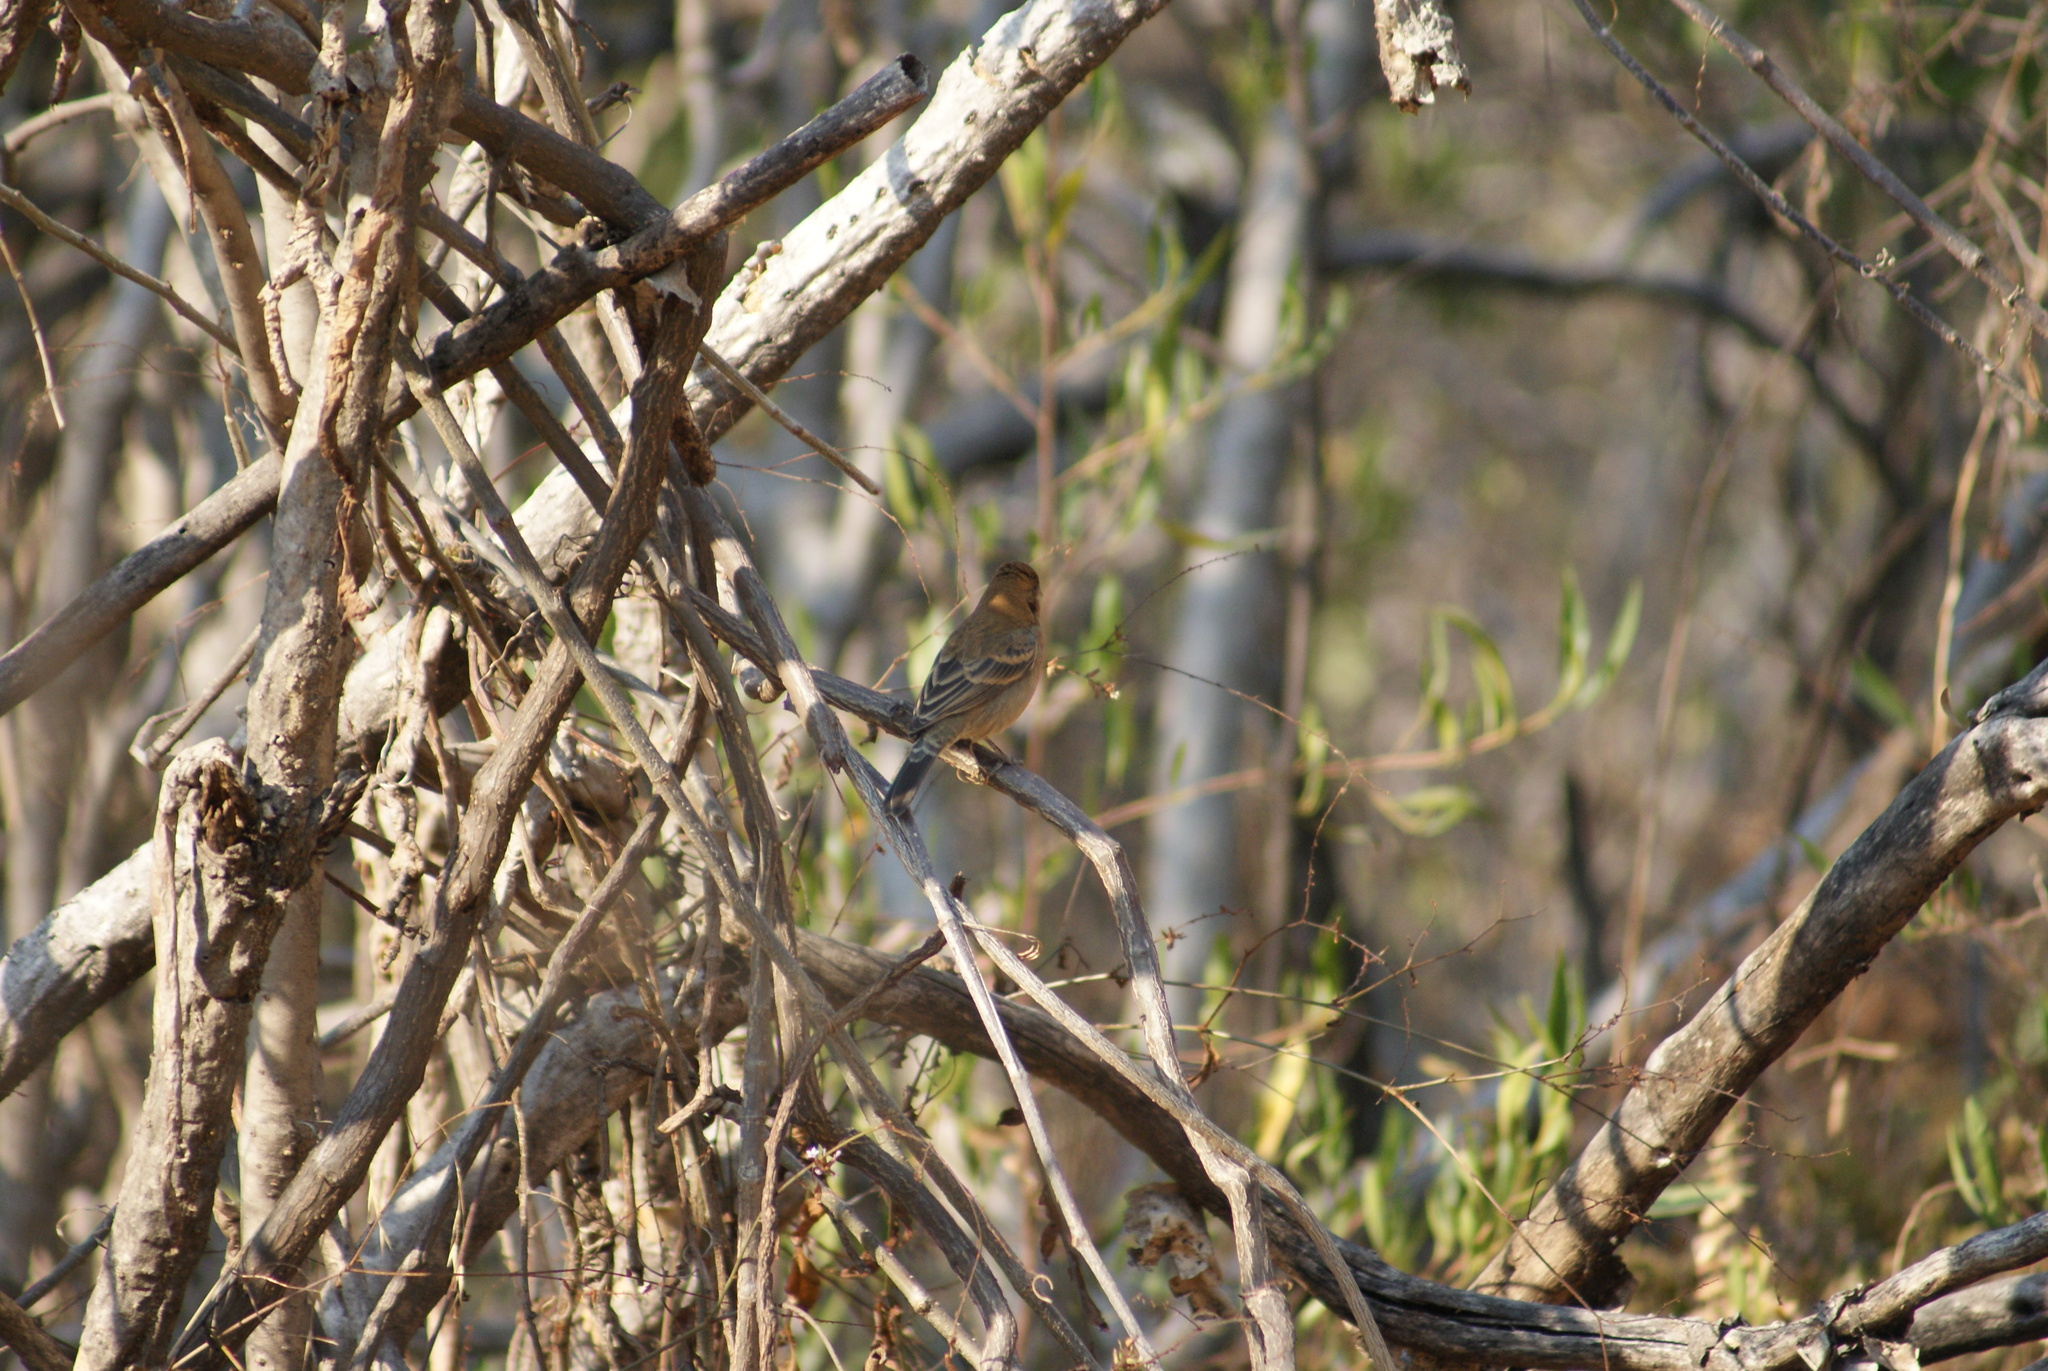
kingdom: Animalia
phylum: Chordata
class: Aves
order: Passeriformes
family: Cardinalidae
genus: Passerina
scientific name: Passerina caerulea
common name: Blue grosbeak
